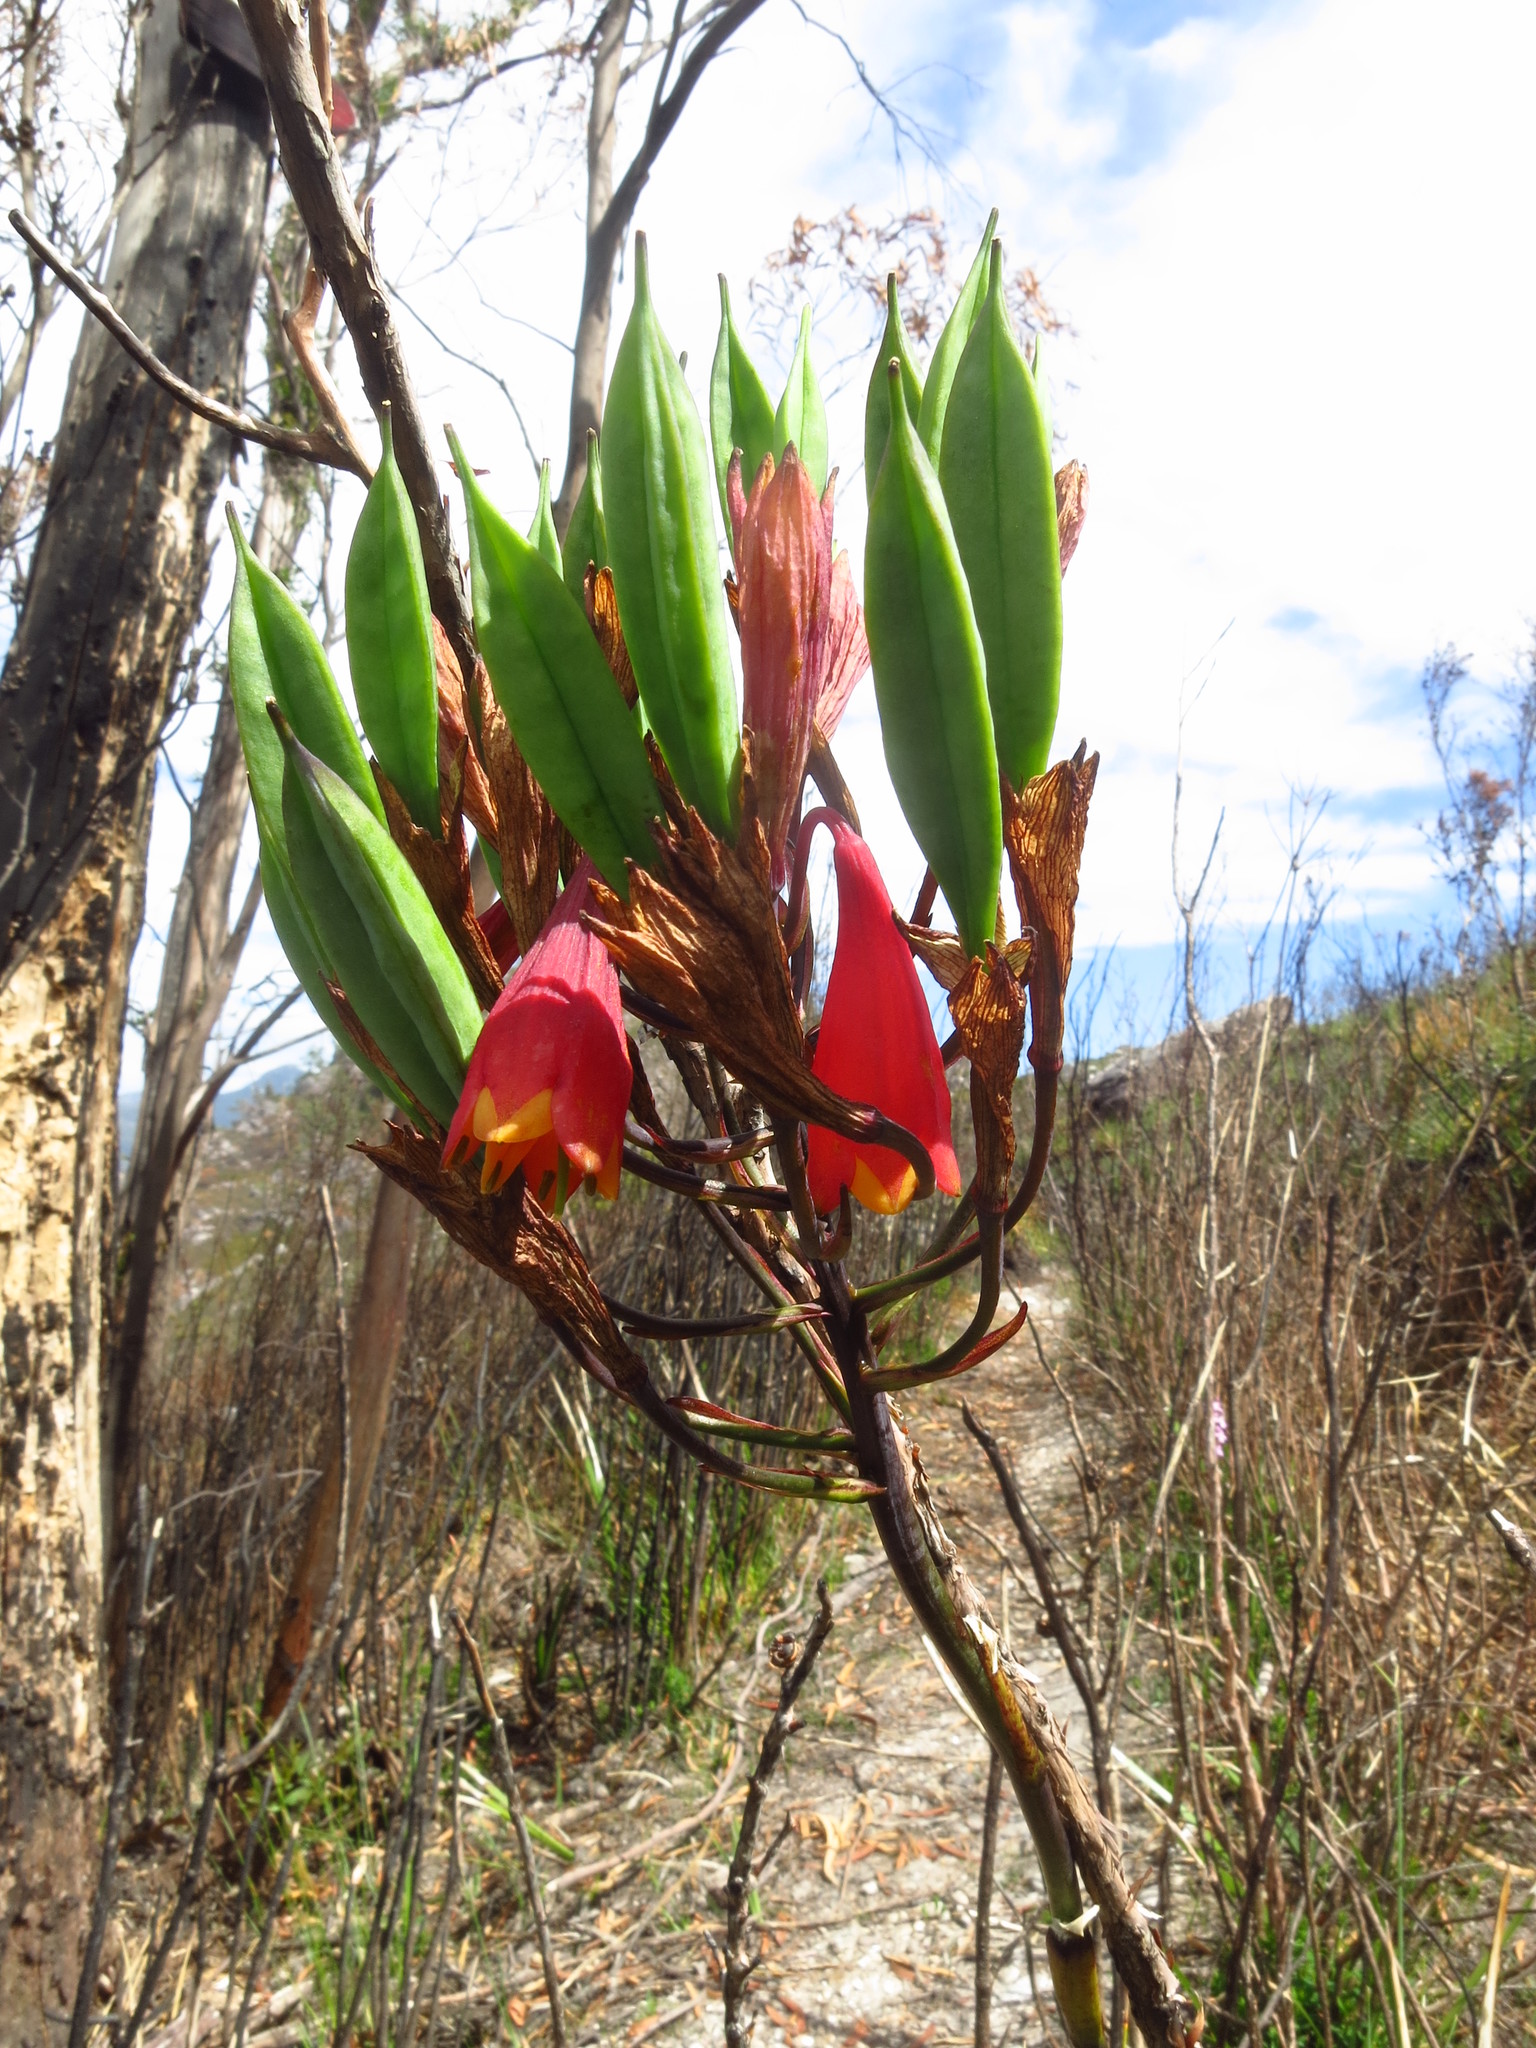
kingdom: Plantae
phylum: Tracheophyta
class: Liliopsida
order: Asparagales
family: Blandfordiaceae
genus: Blandfordia
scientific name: Blandfordia punicea
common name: Tasmanian christmas-bell
